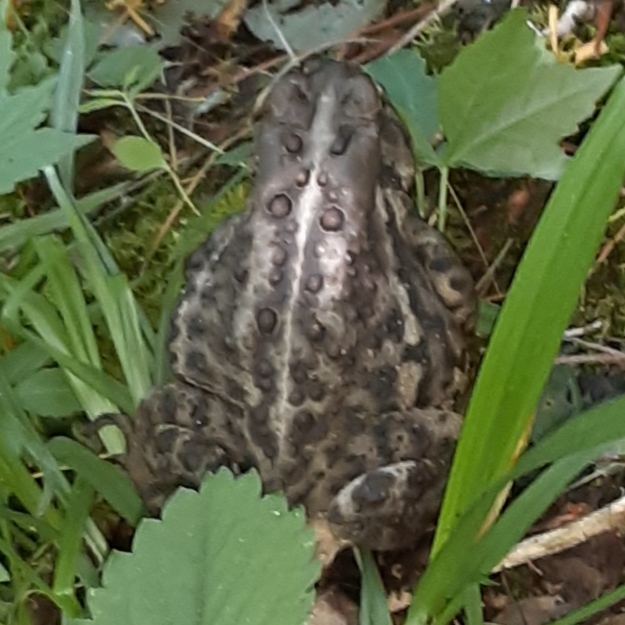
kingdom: Animalia
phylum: Chordata
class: Amphibia
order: Anura
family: Bufonidae
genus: Anaxyrus
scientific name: Anaxyrus americanus
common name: American toad
